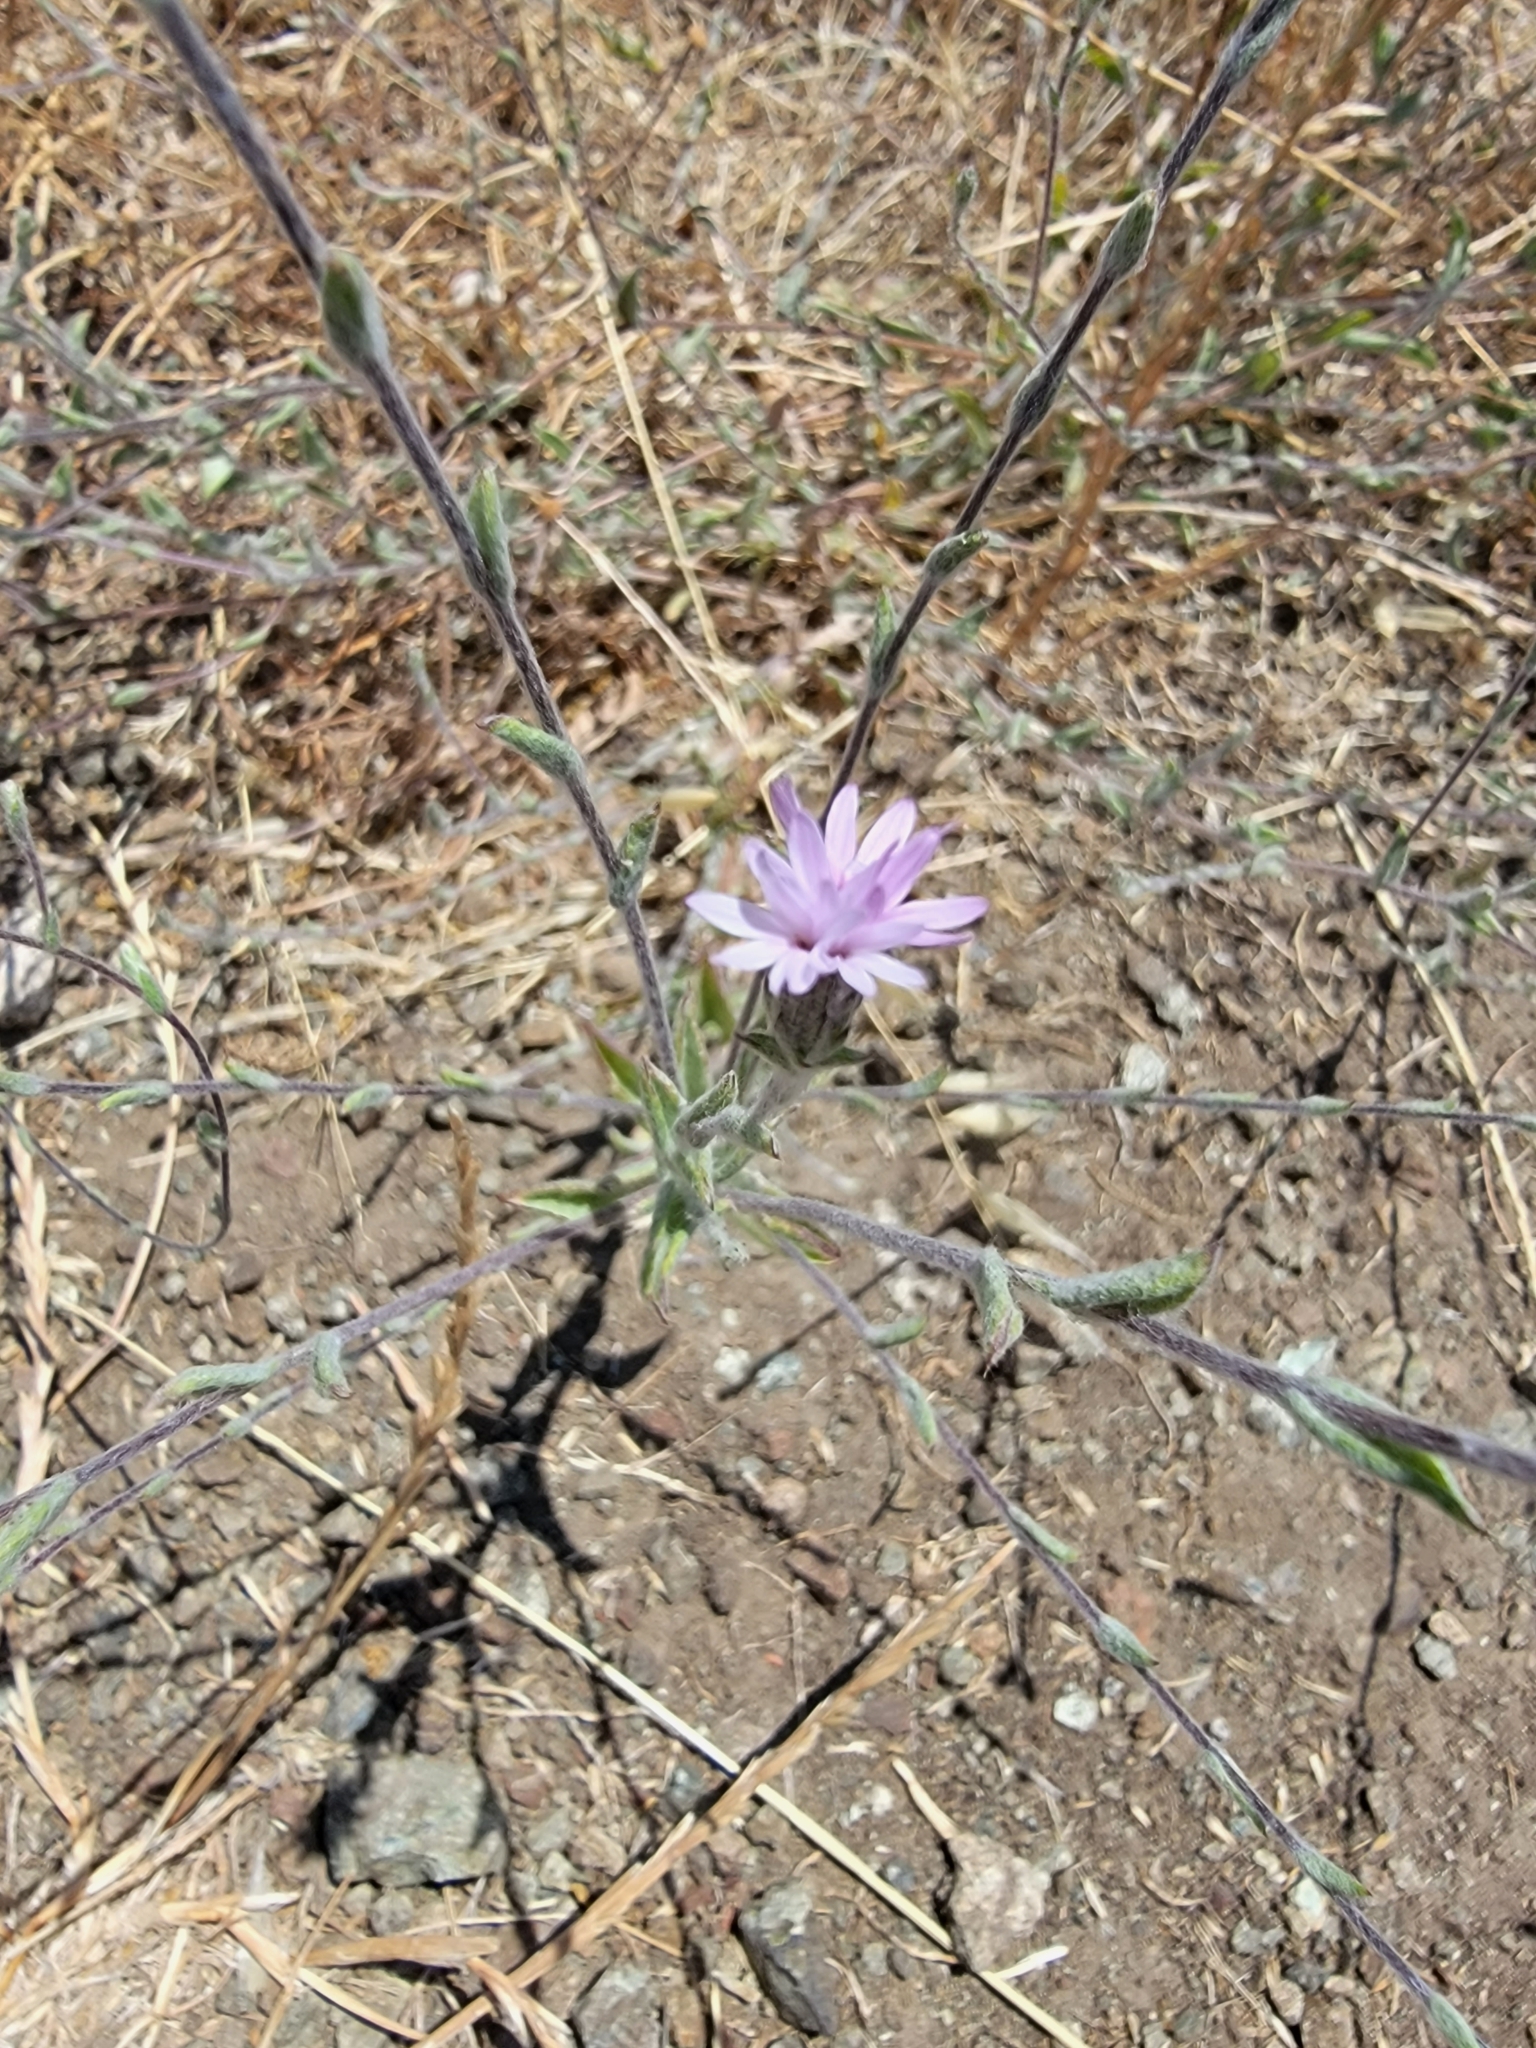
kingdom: Plantae
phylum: Tracheophyta
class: Magnoliopsida
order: Asterales
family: Asteraceae
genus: Lessingia
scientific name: Lessingia hololeuca
